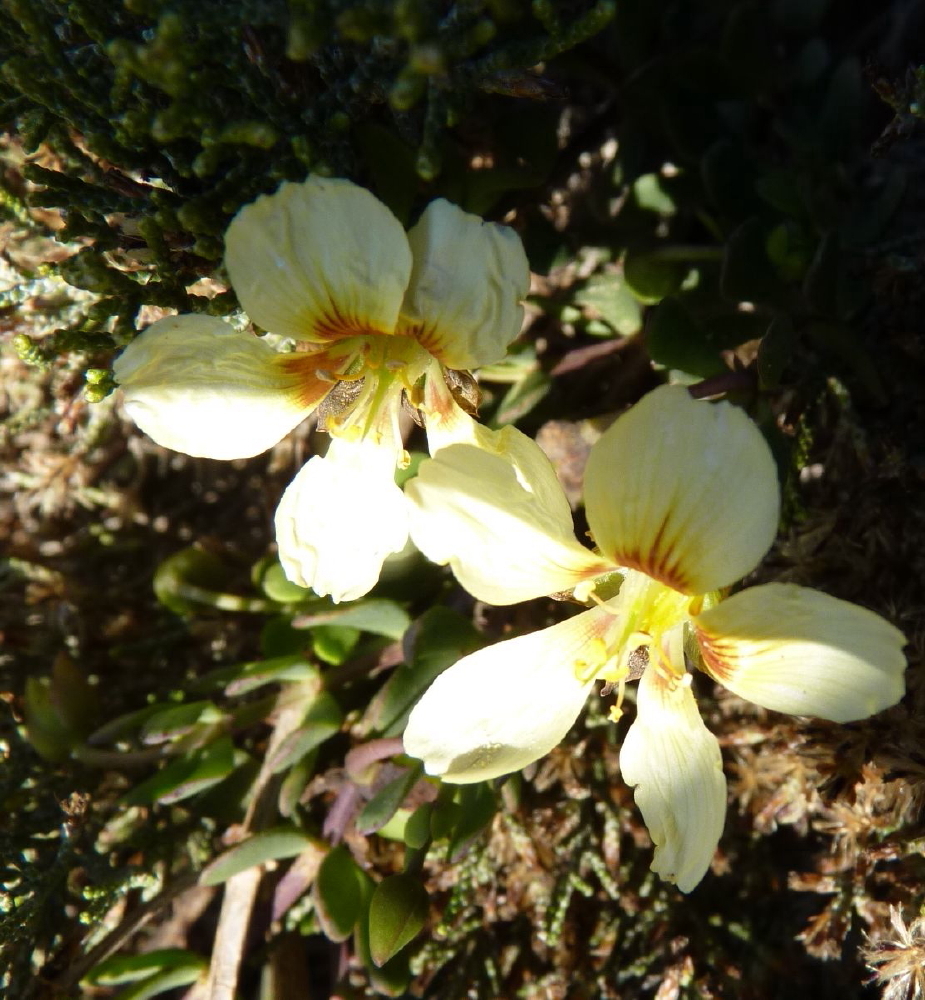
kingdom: Plantae
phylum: Tracheophyta
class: Magnoliopsida
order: Zygophyllales
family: Zygophyllaceae
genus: Roepera
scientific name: Roepera fulva
